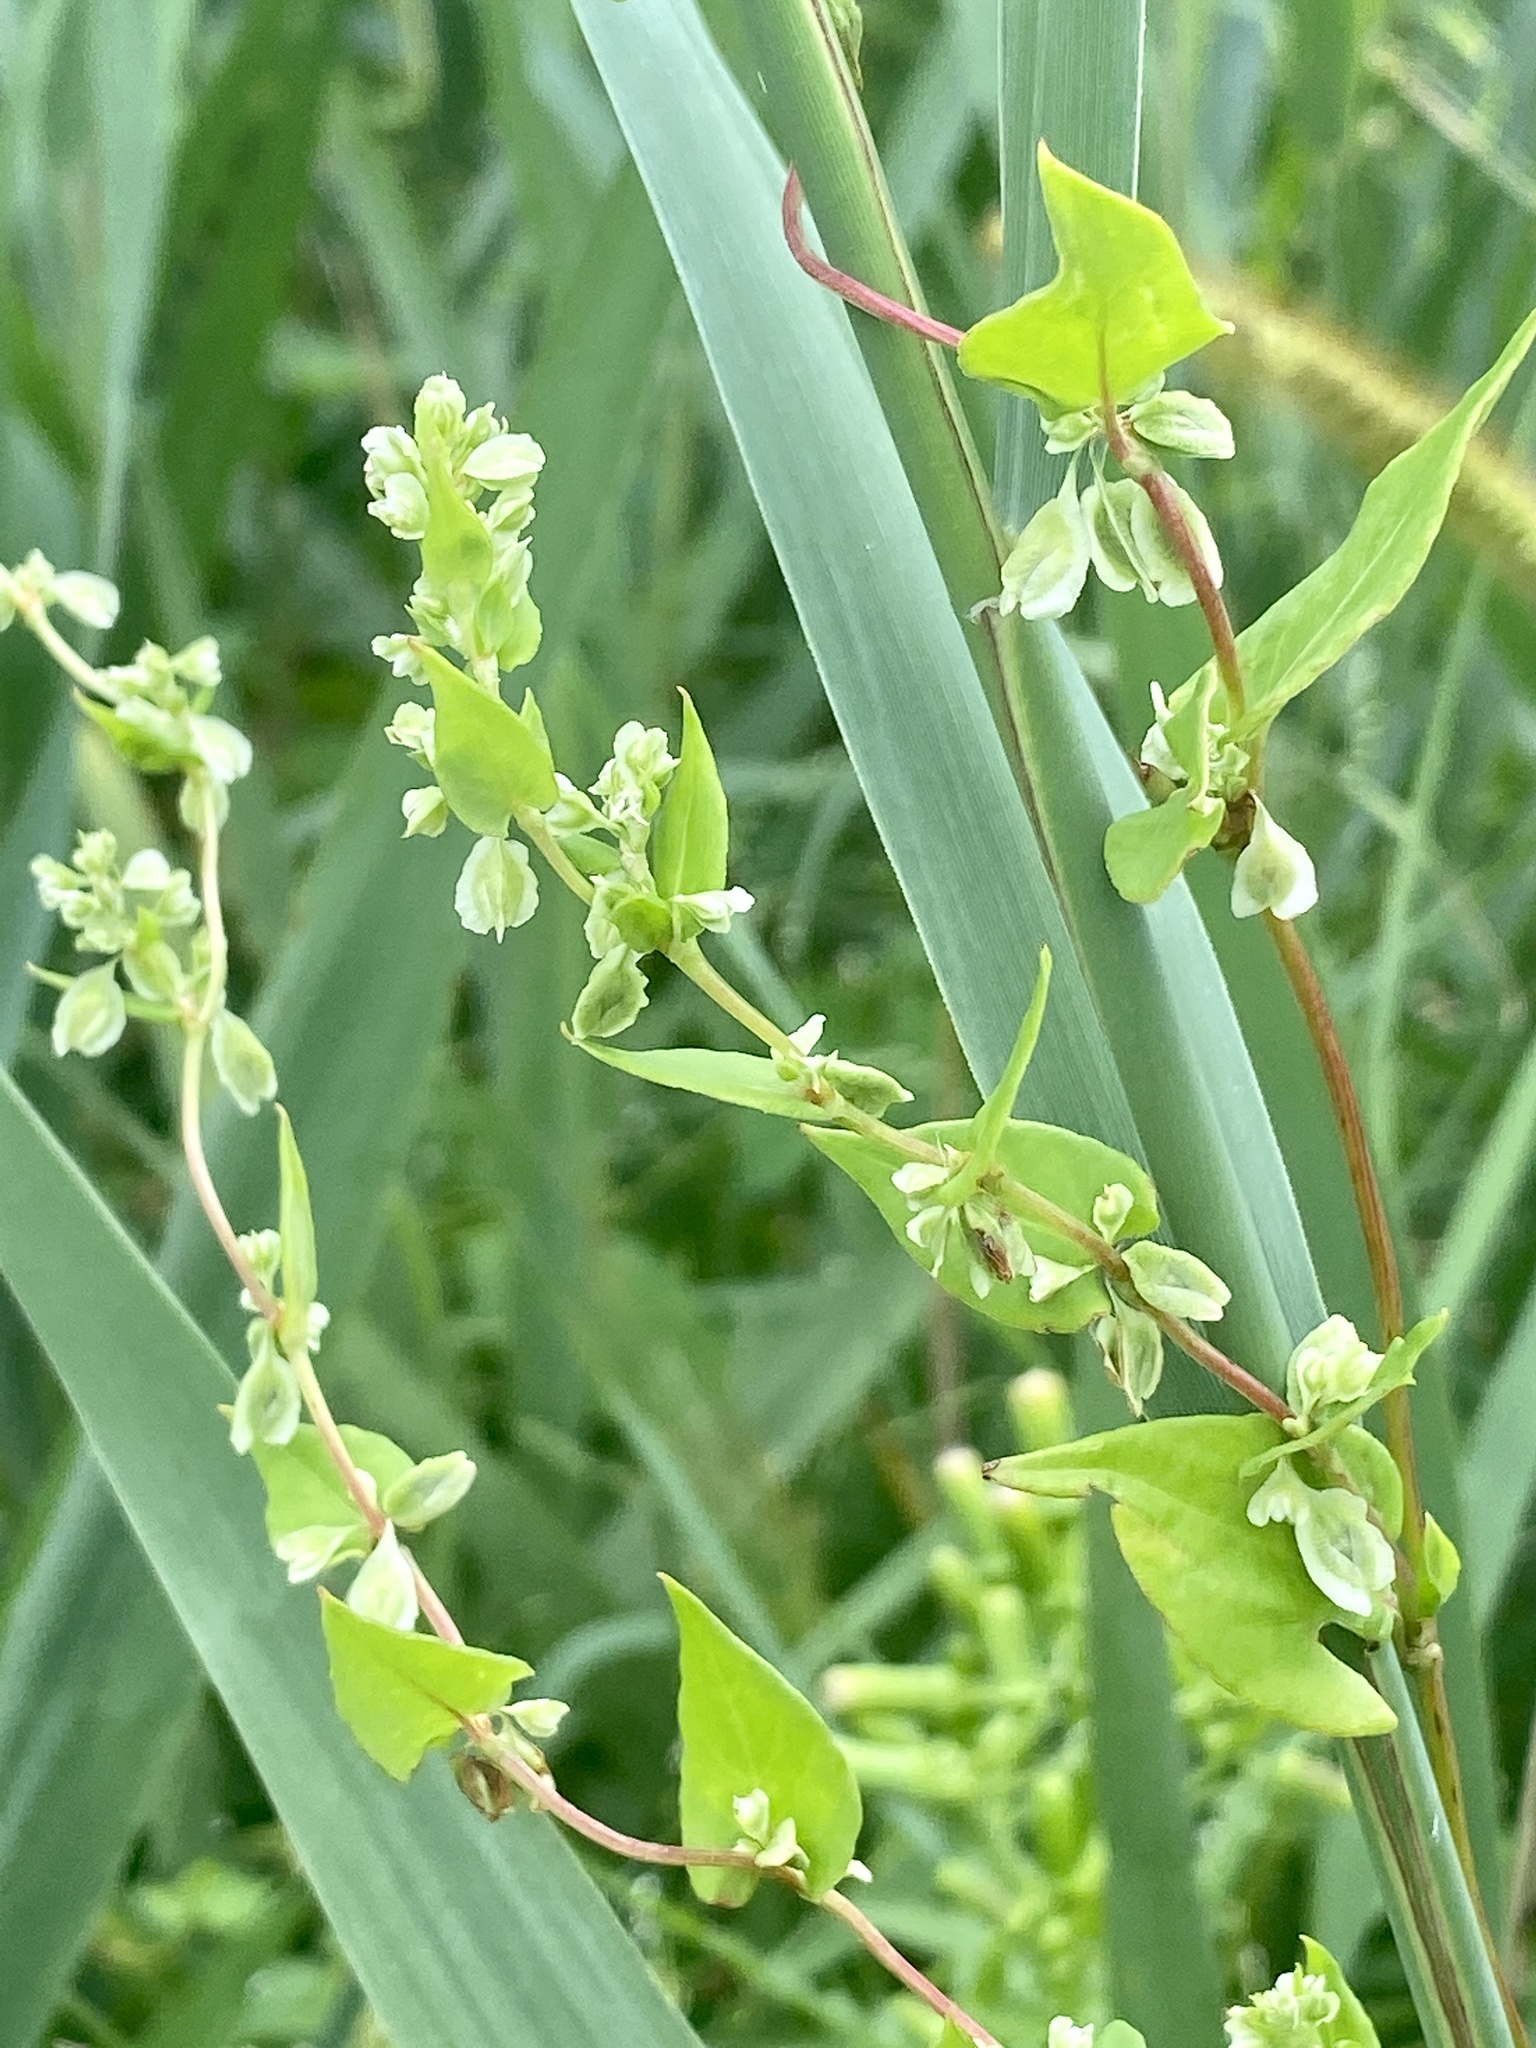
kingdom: Plantae
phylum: Tracheophyta
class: Magnoliopsida
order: Caryophyllales
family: Polygonaceae
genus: Fallopia
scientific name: Fallopia scandens
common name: Climbing false buckwheat
